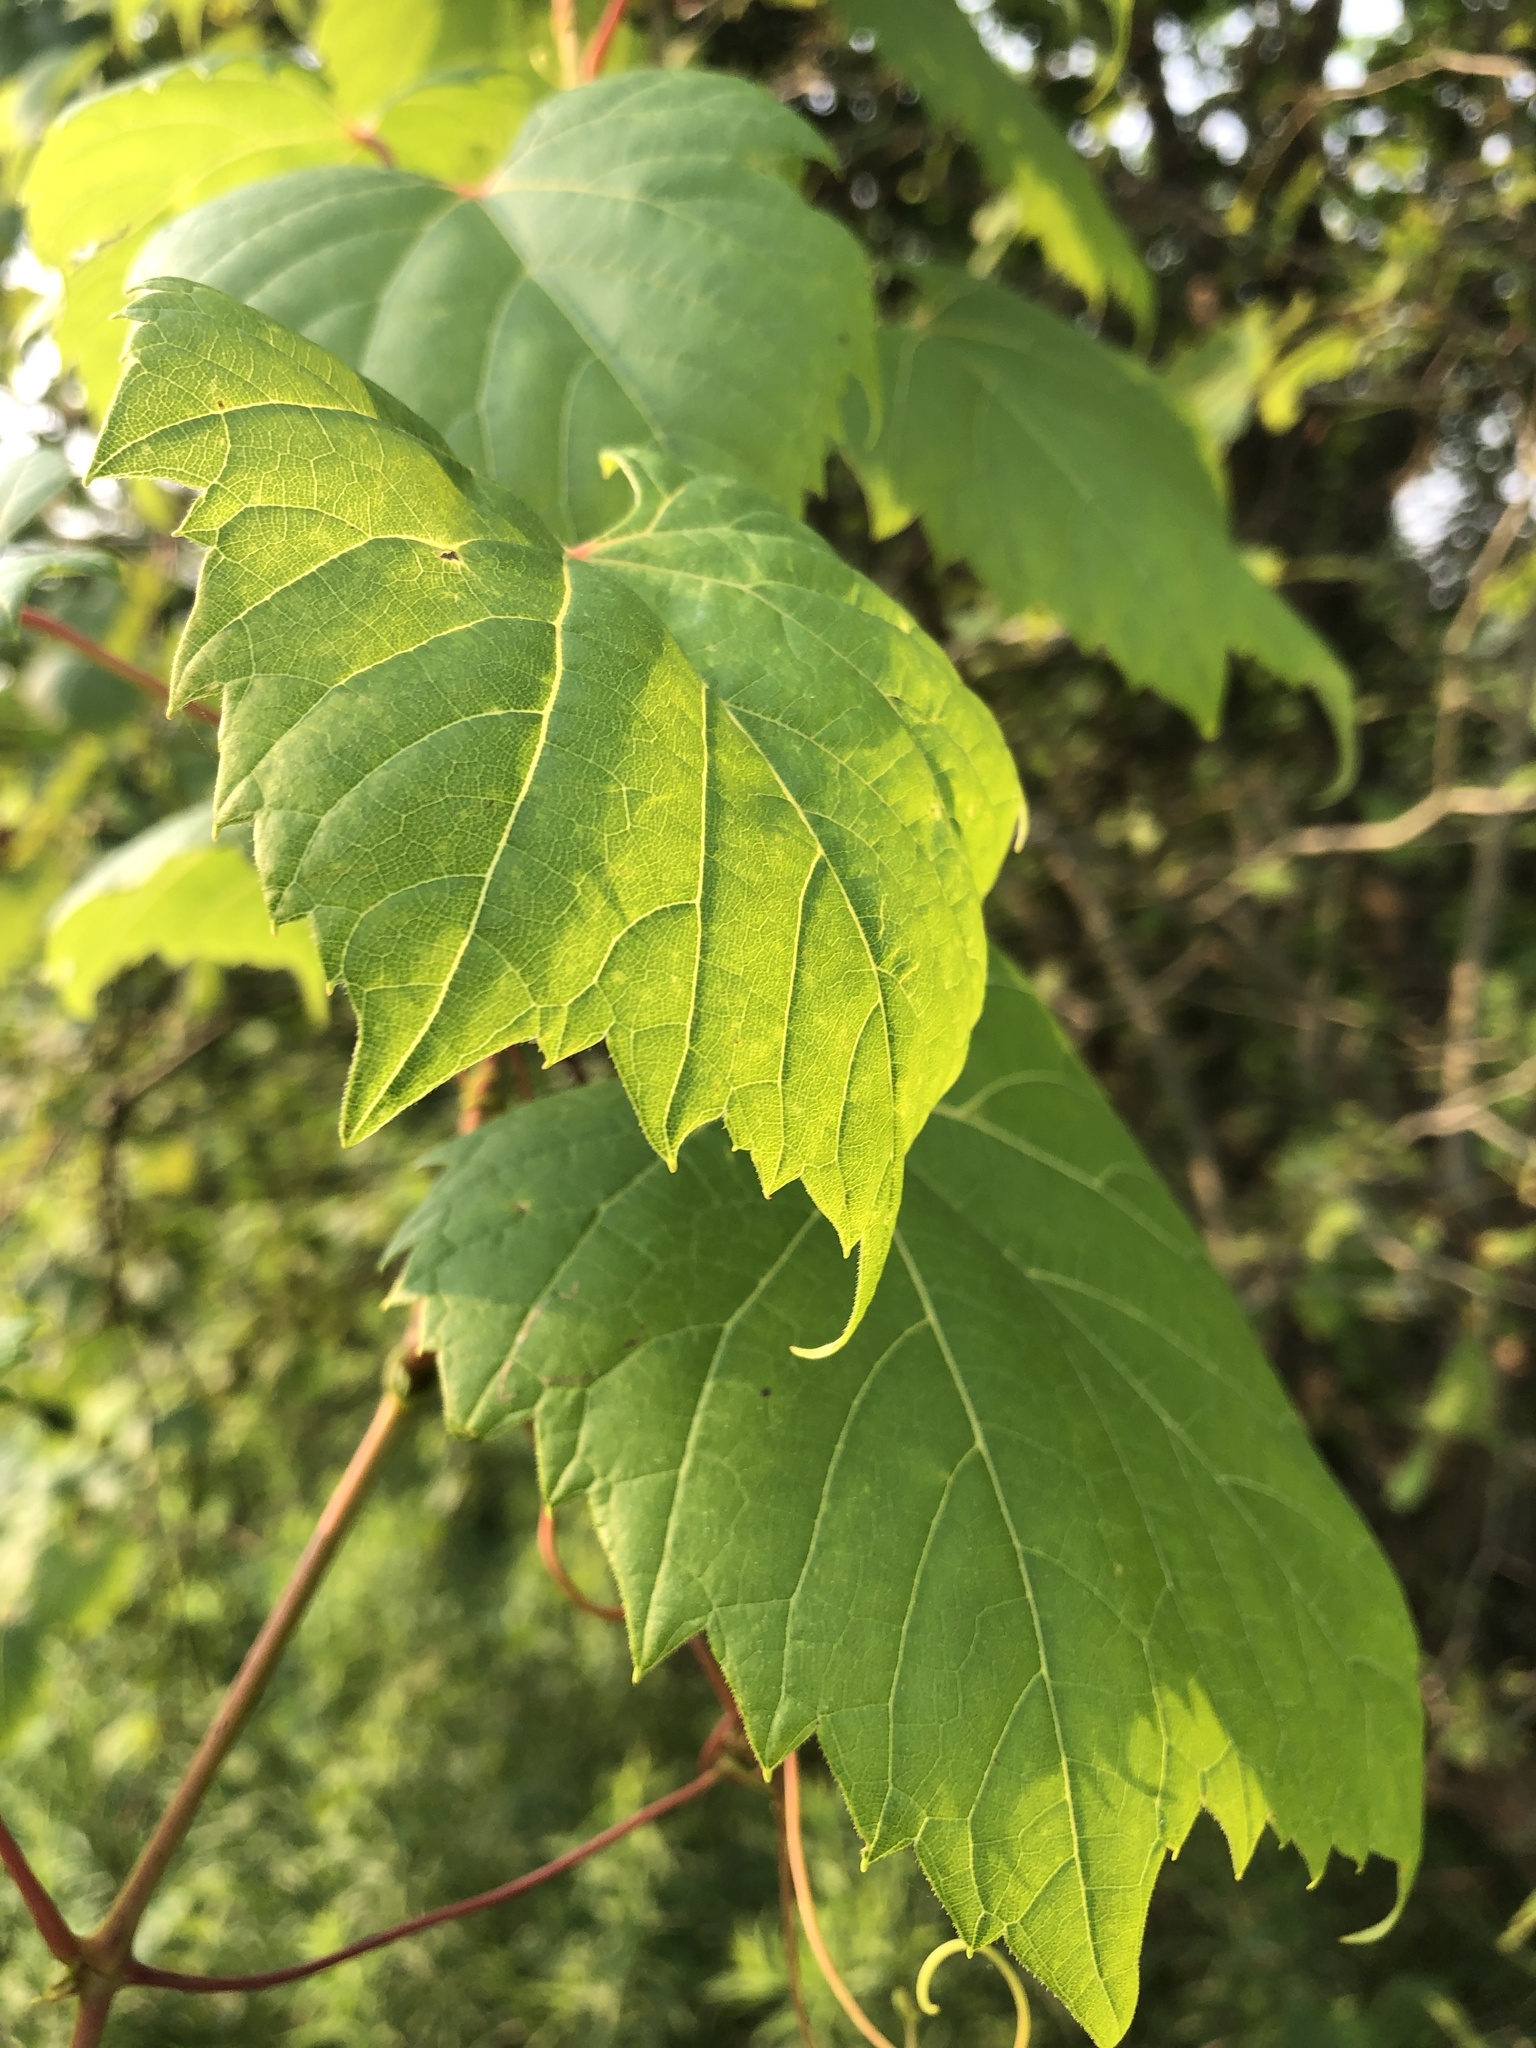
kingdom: Plantae
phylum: Tracheophyta
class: Magnoliopsida
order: Vitales
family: Vitaceae
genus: Vitis
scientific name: Vitis riparia
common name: Frost grape
